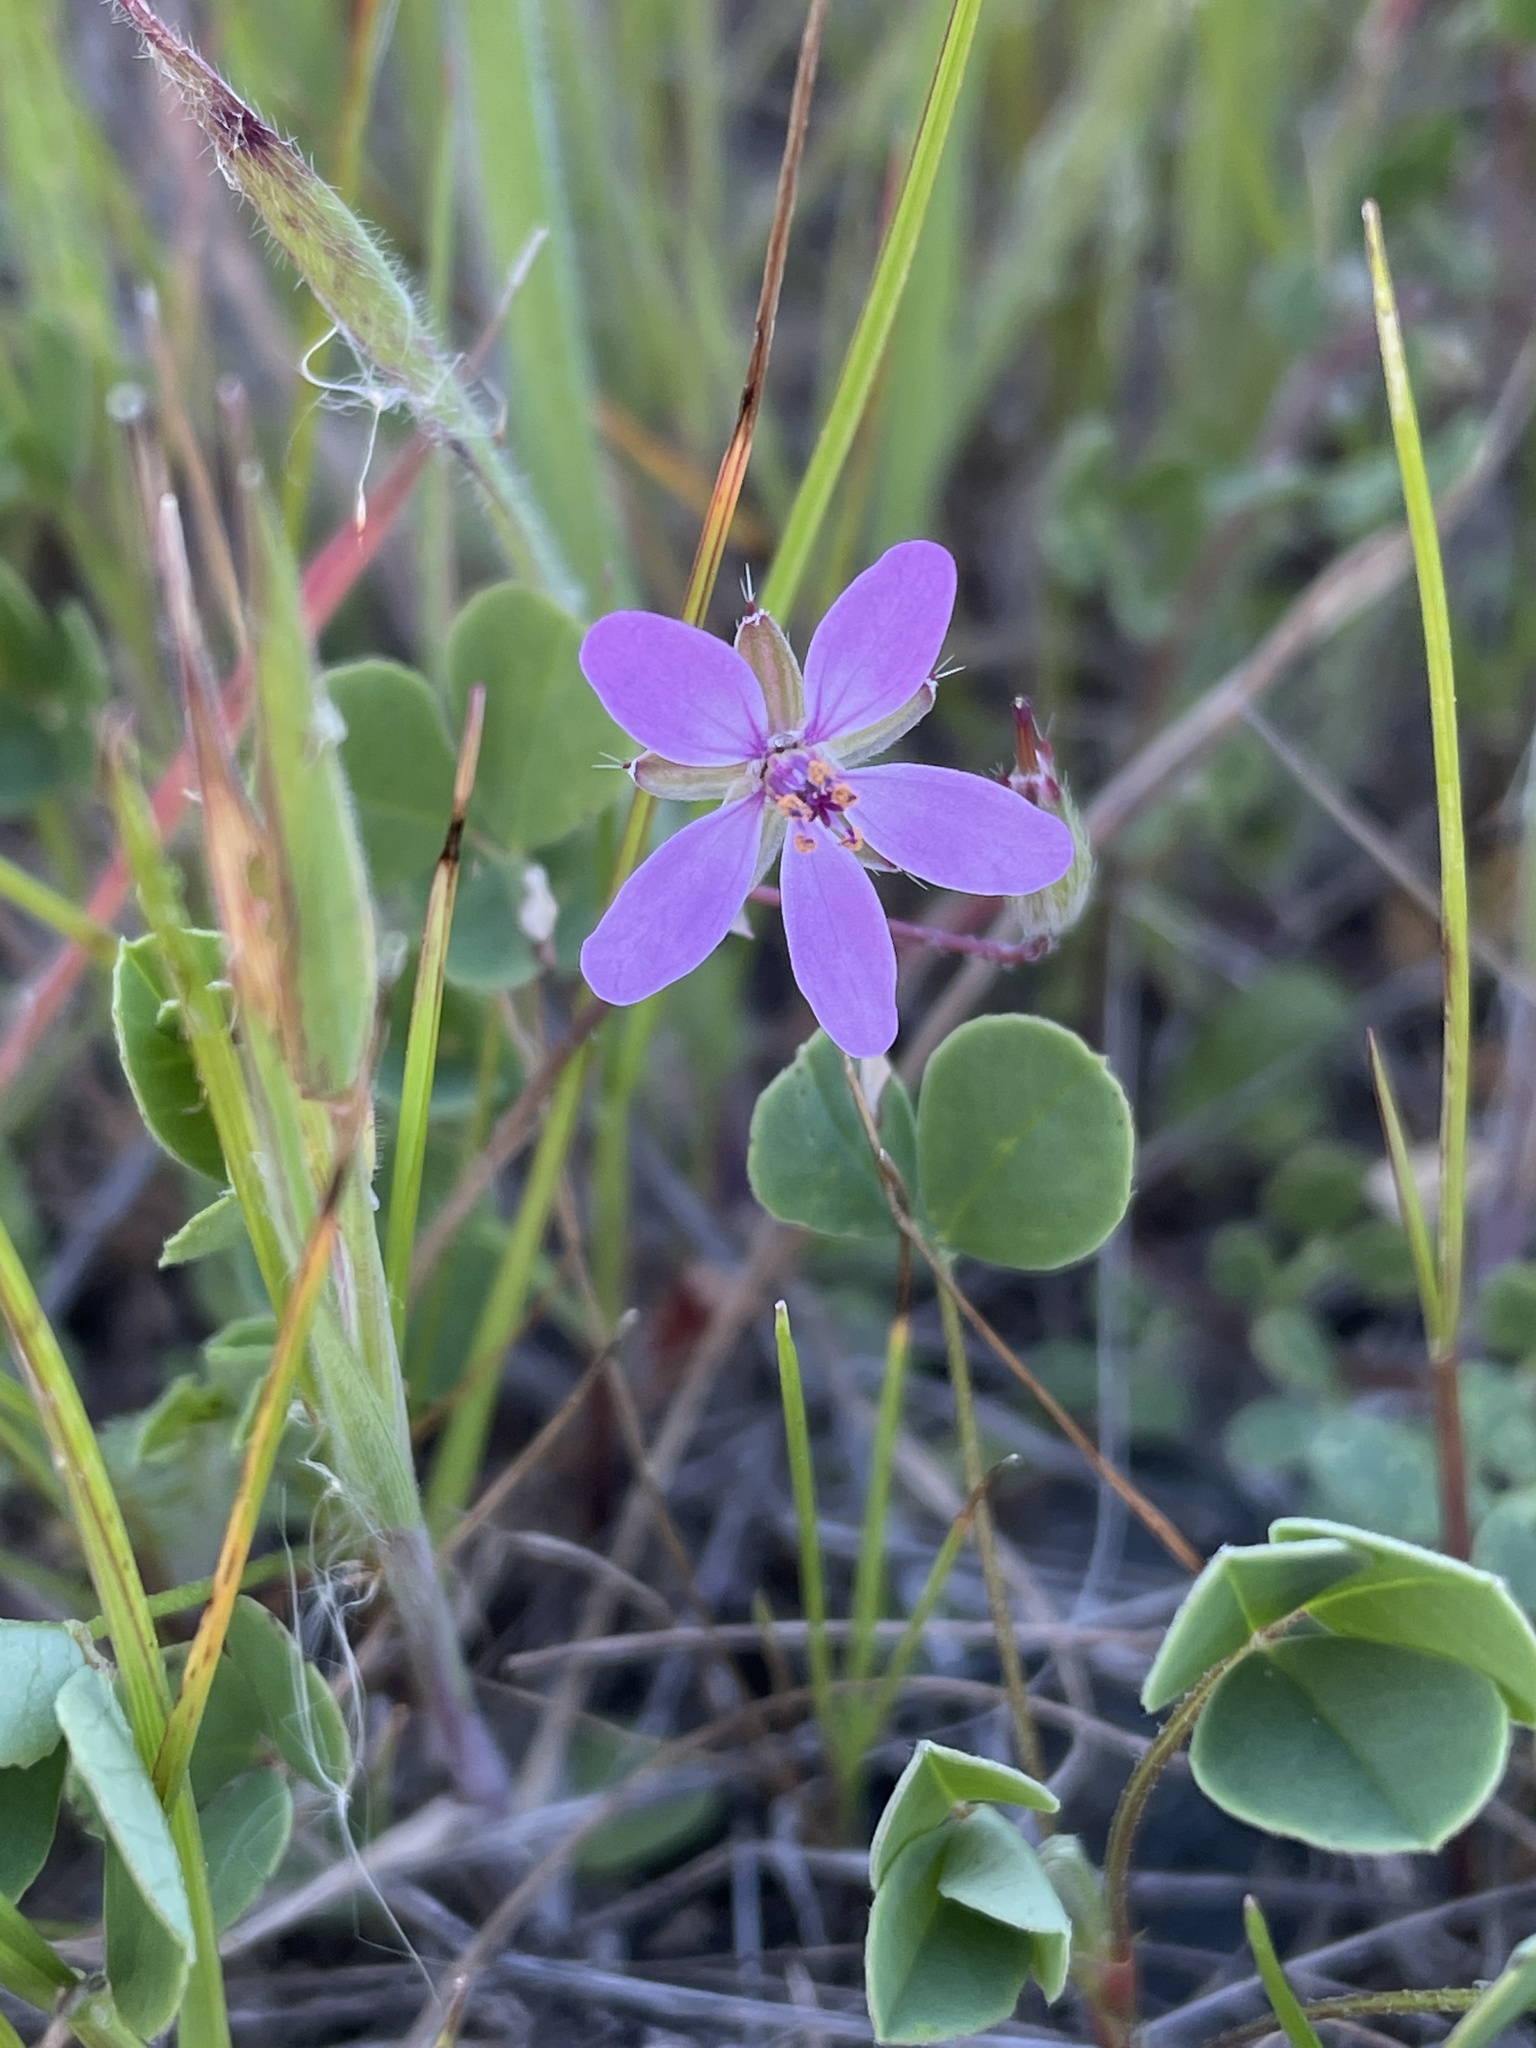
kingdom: Plantae
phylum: Tracheophyta
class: Magnoliopsida
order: Geraniales
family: Geraniaceae
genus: Erodium
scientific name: Erodium cicutarium
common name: Common stork's-bill
